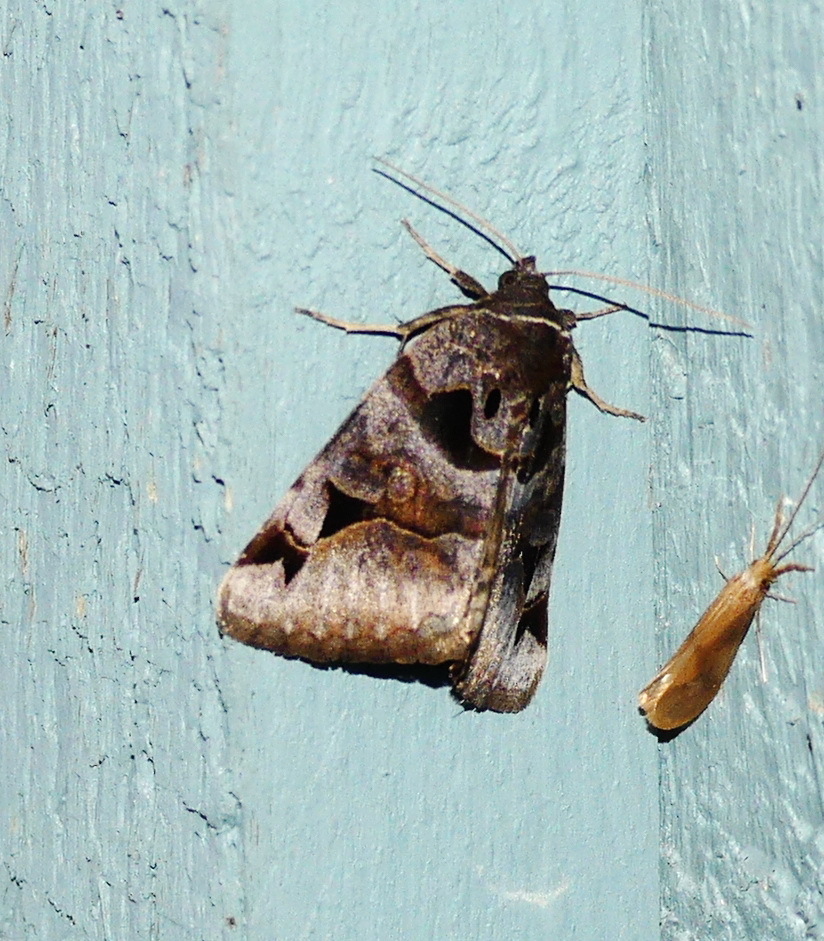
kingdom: Animalia
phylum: Arthropoda
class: Insecta
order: Lepidoptera
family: Erebidae
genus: Euclidia
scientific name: Euclidia cuspidea
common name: Toothed somberwing
